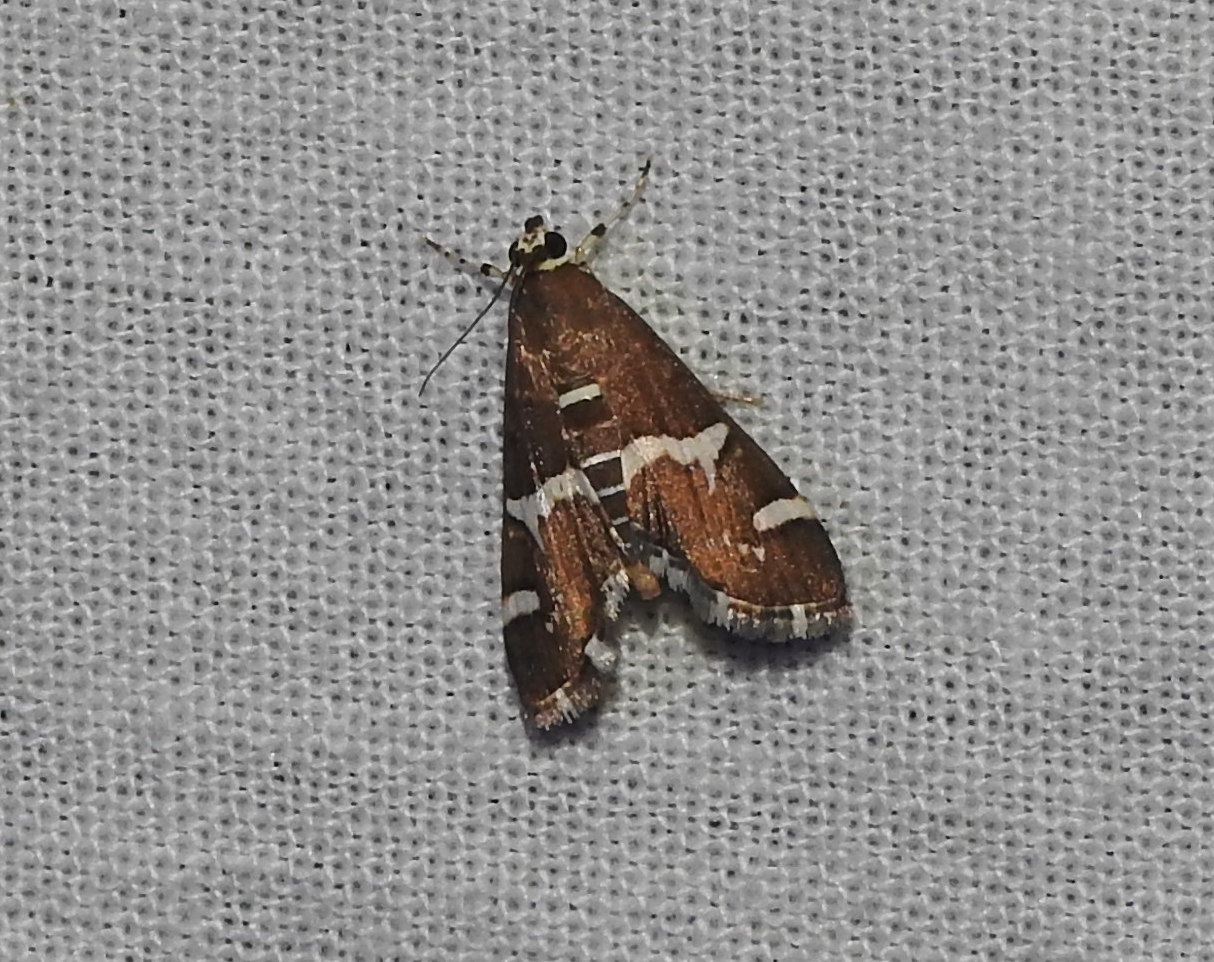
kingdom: Animalia
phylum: Arthropoda
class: Insecta
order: Lepidoptera
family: Crambidae
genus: Spoladea
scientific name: Spoladea recurvalis
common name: Beet webworm moth
